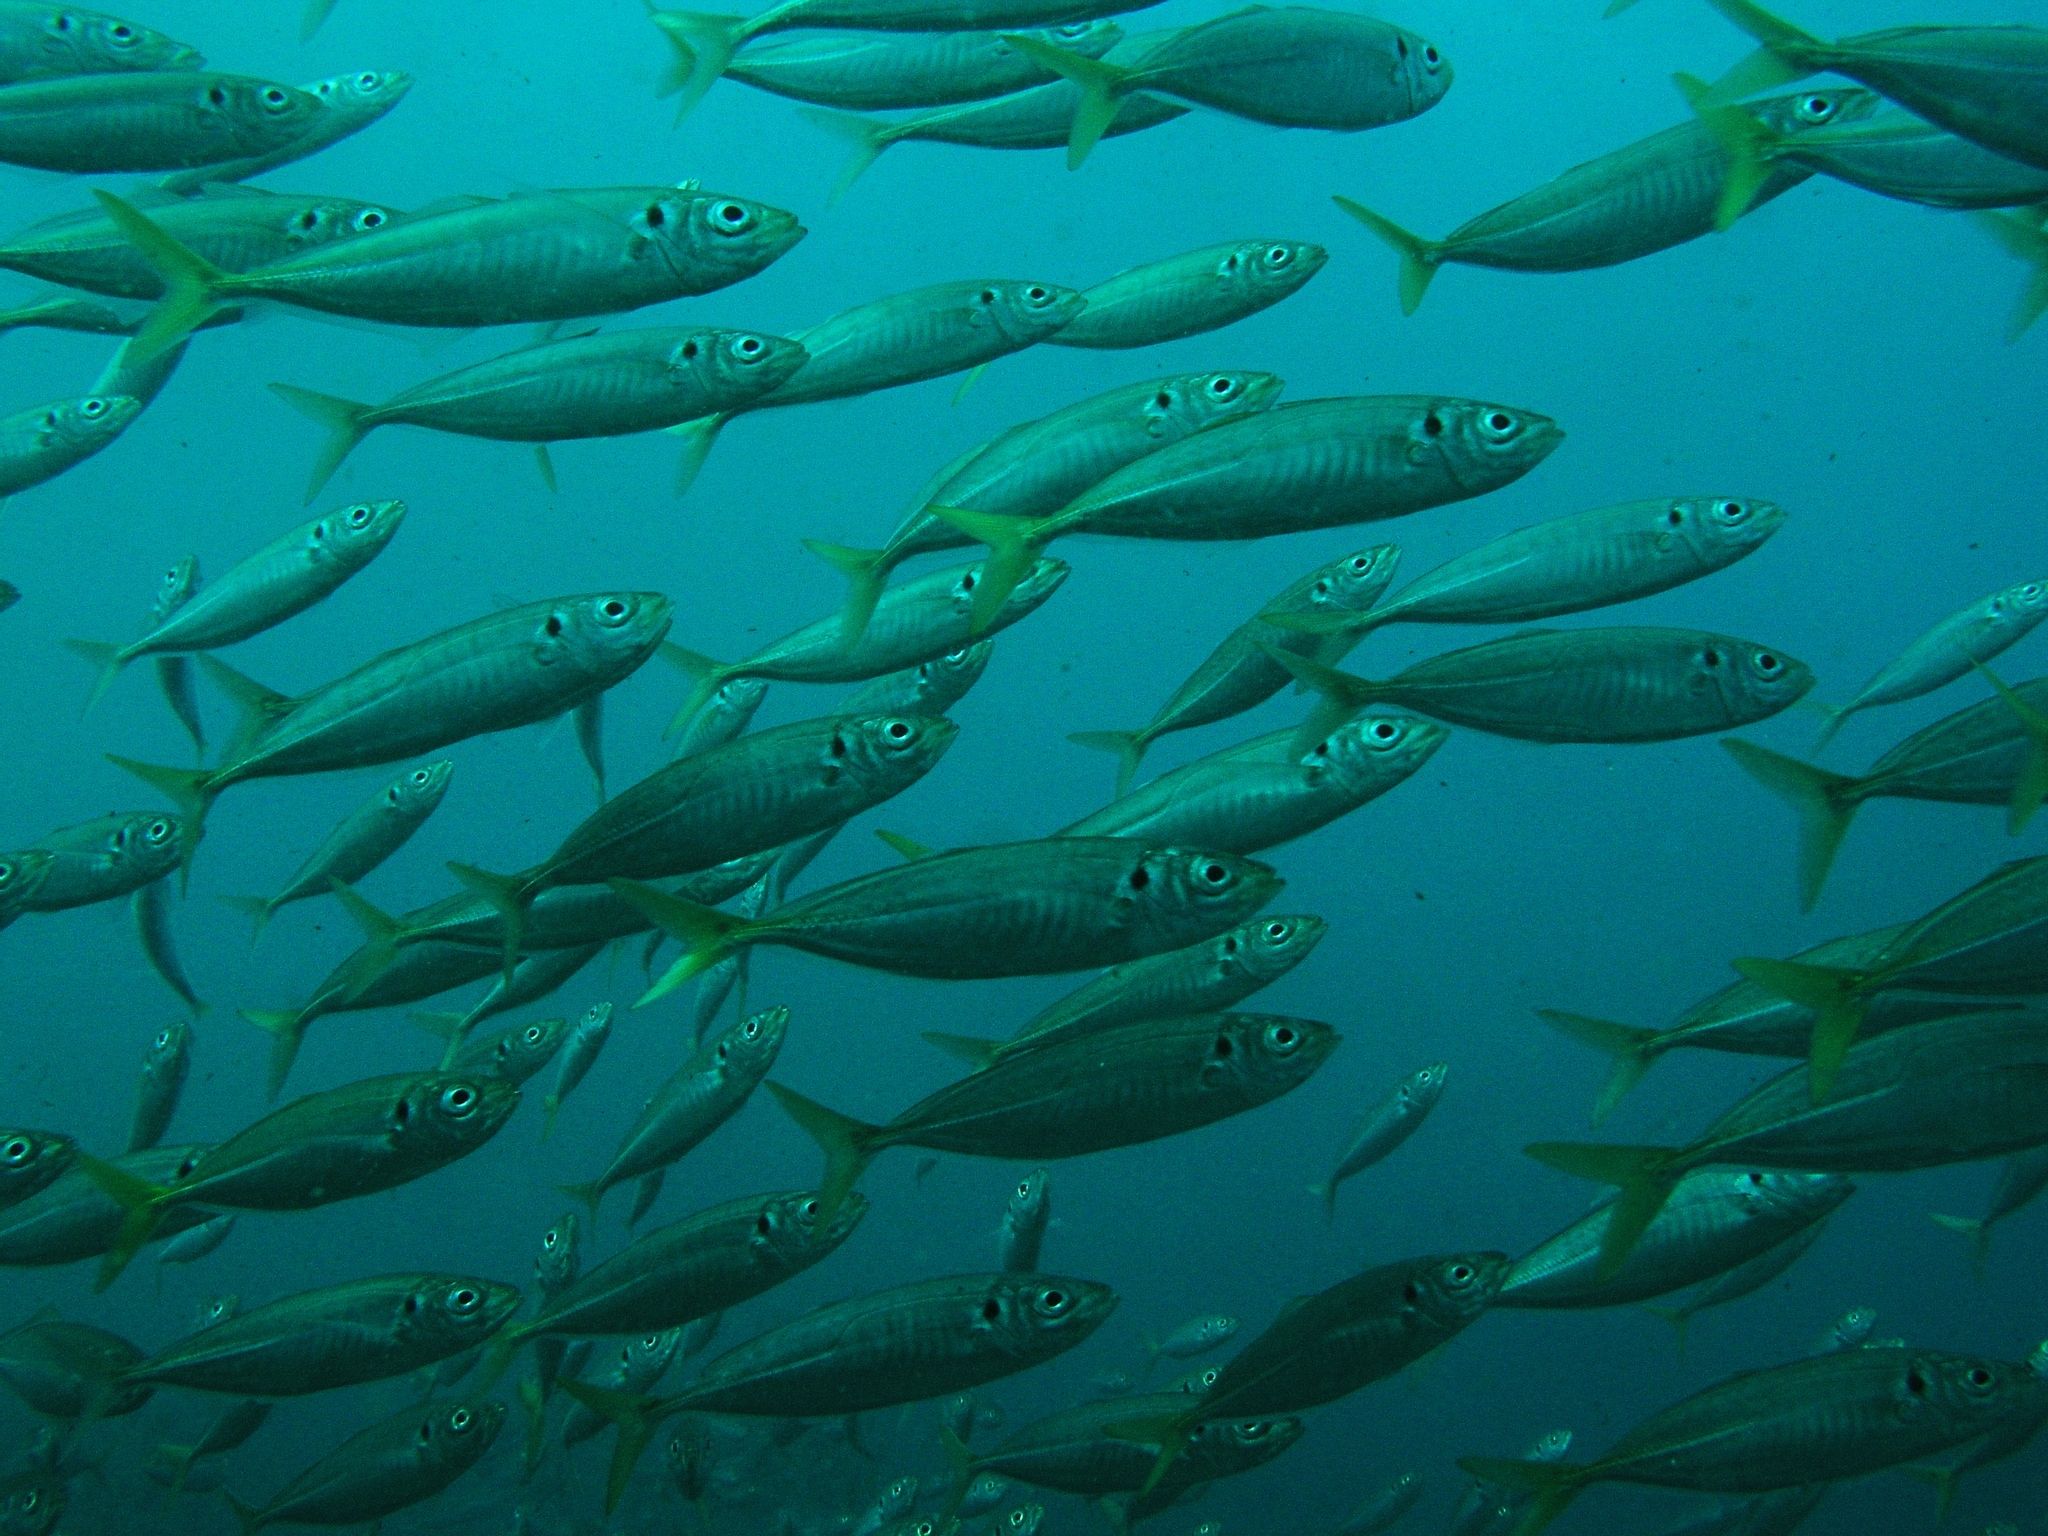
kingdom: Animalia
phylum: Chordata
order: Perciformes
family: Carangidae
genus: Trachurus
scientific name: Trachurus novaezelandiae
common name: Yellowtail horse mackerel
